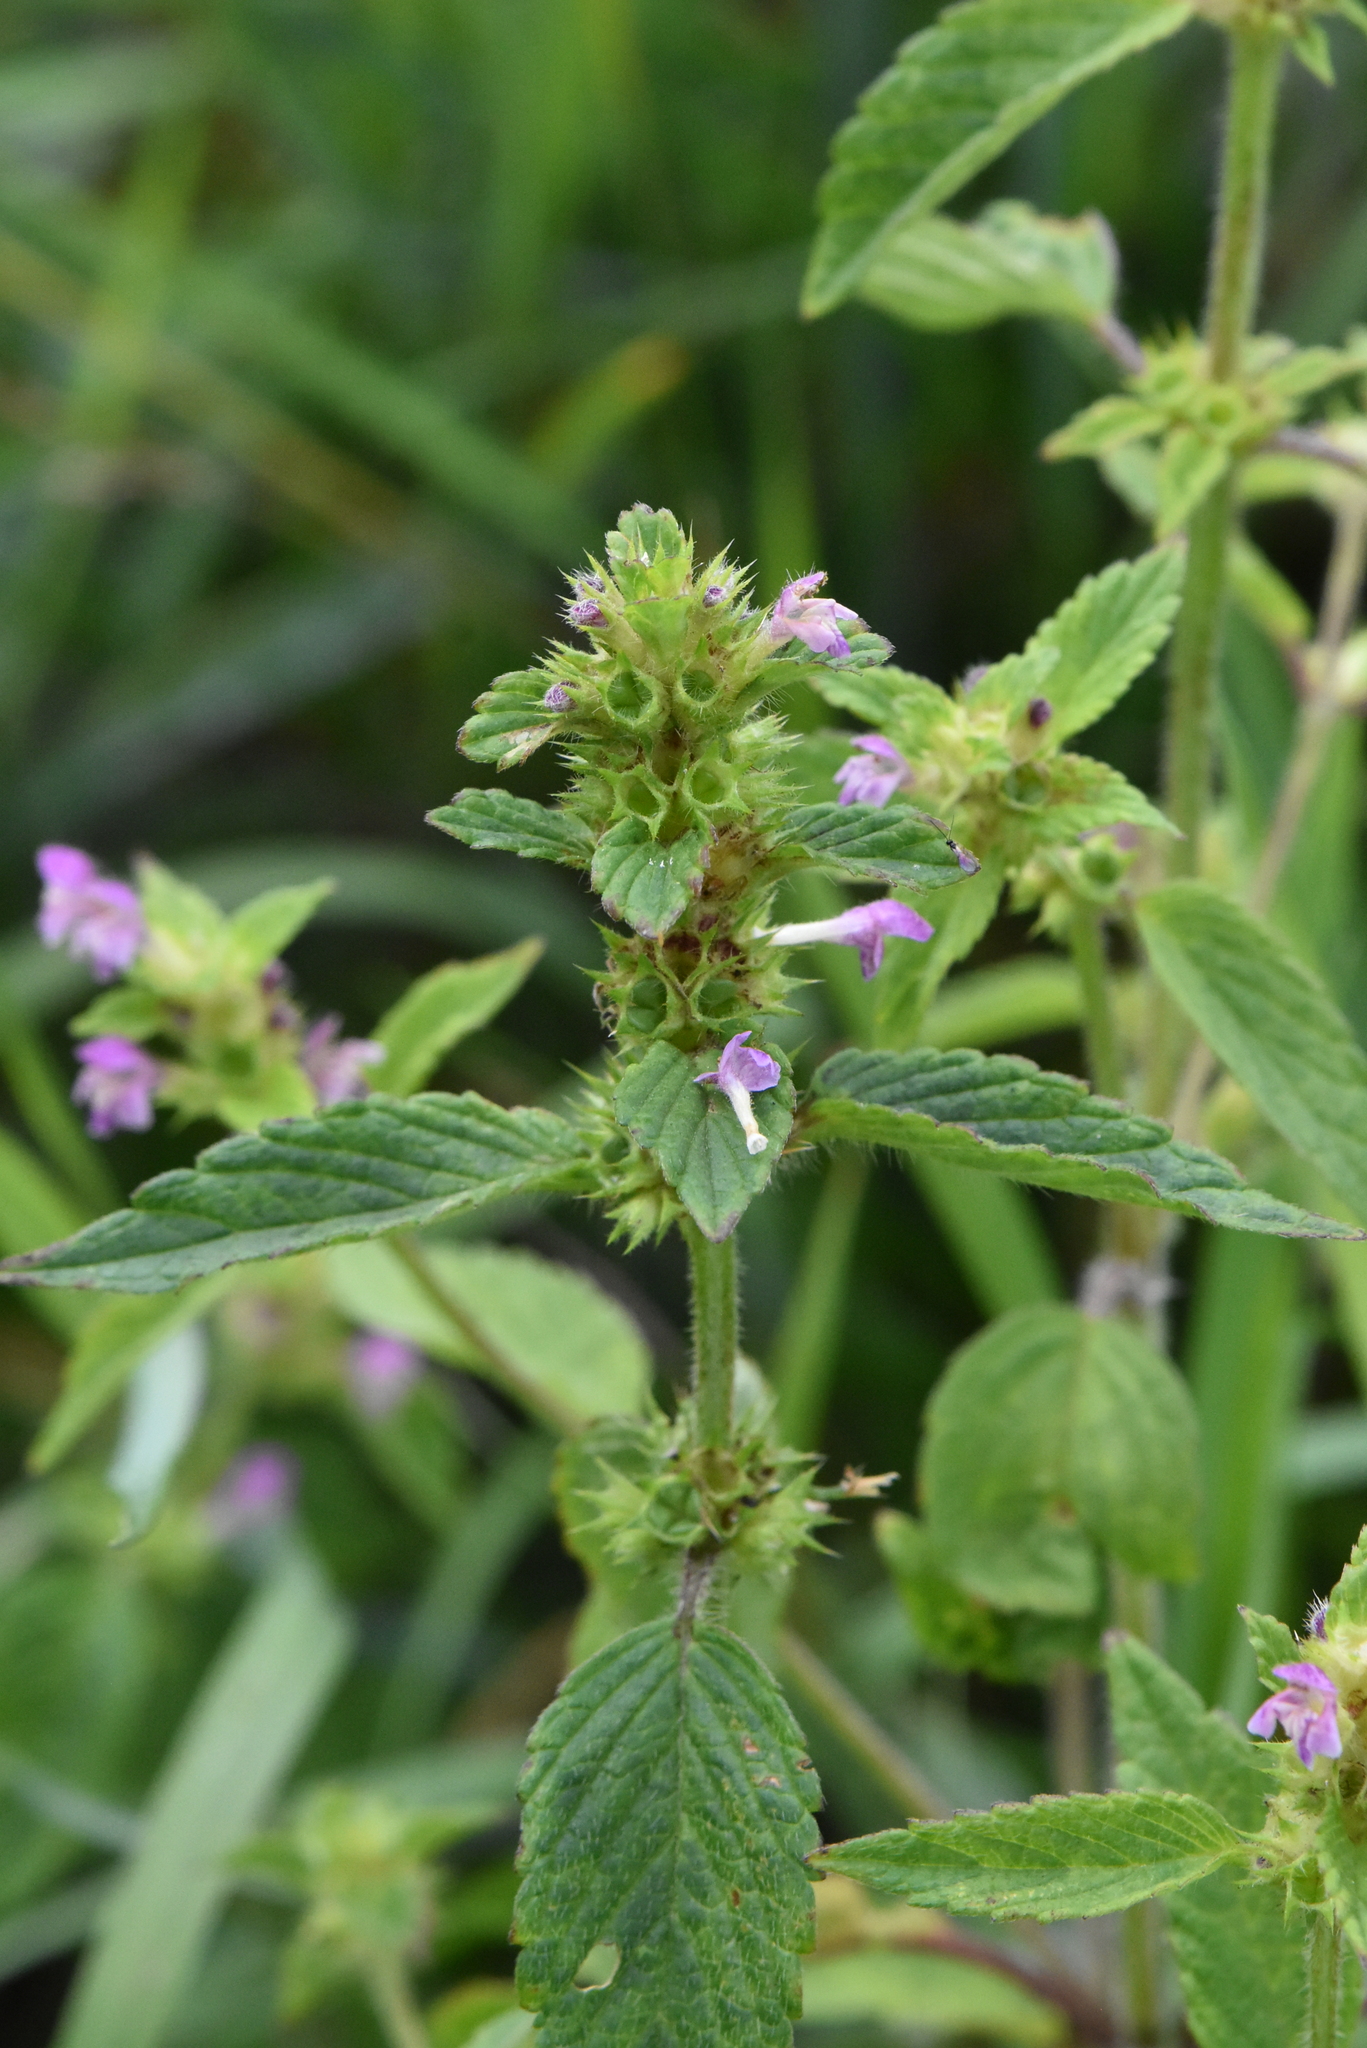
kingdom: Plantae
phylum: Tracheophyta
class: Magnoliopsida
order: Lamiales
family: Lamiaceae
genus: Galeopsis
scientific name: Galeopsis bifida
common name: Bifid hemp-nettle
